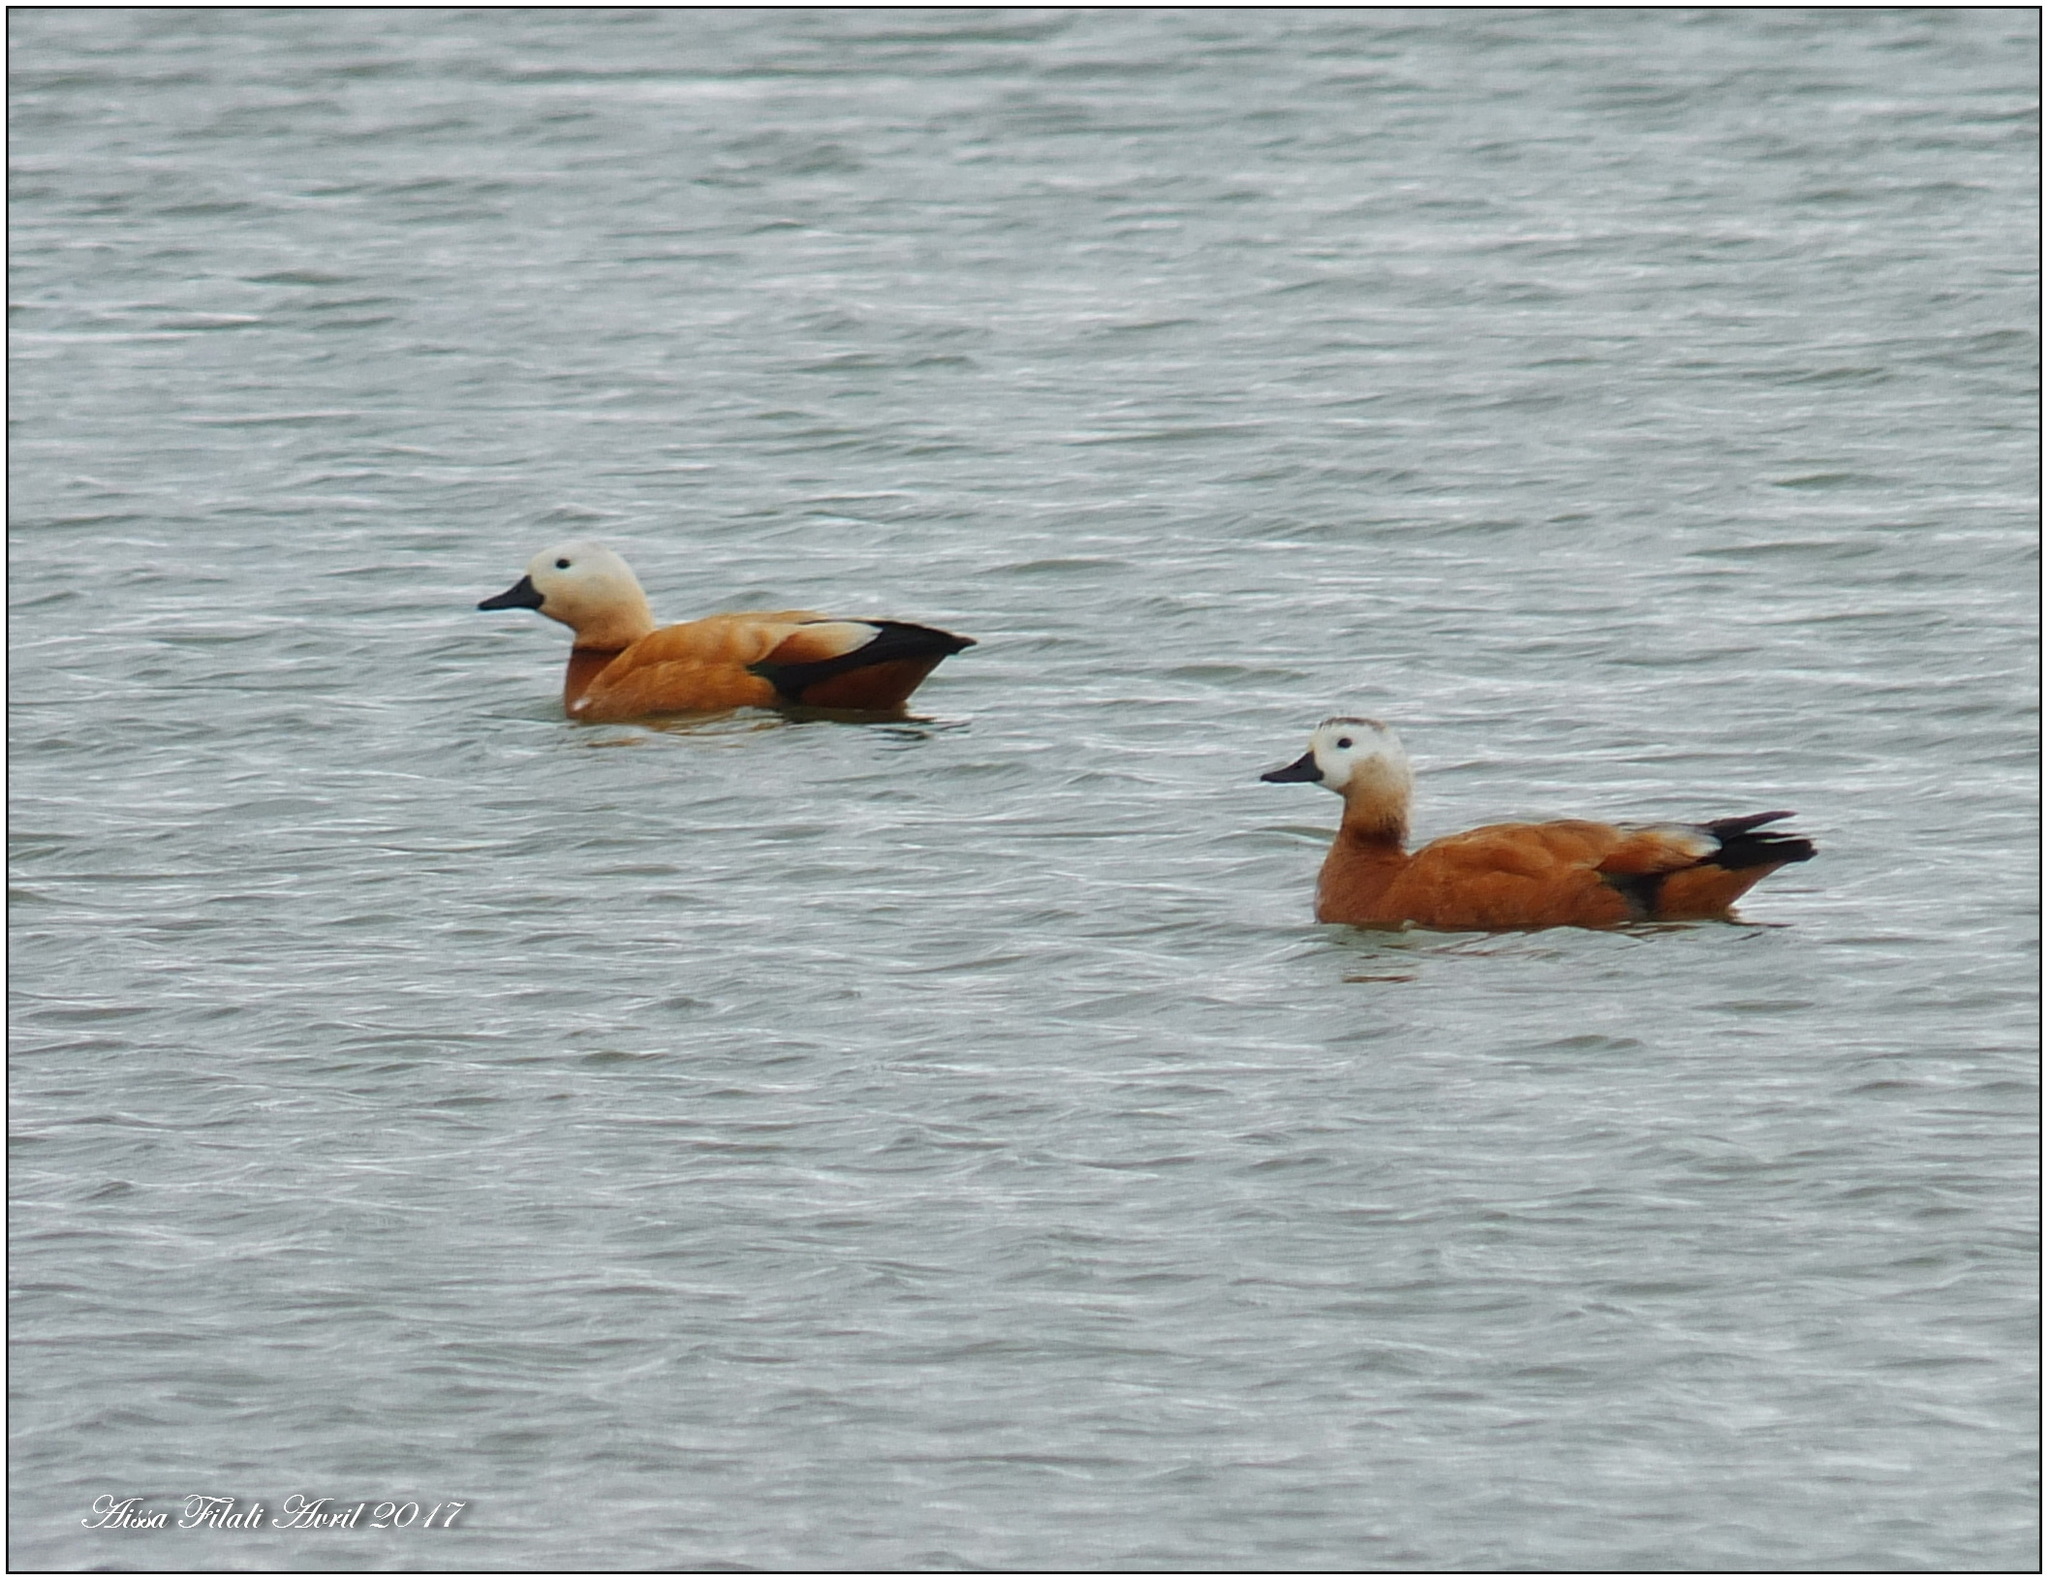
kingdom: Animalia
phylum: Chordata
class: Aves
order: Anseriformes
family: Anatidae
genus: Tadorna
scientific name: Tadorna ferruginea
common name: Ruddy shelduck
